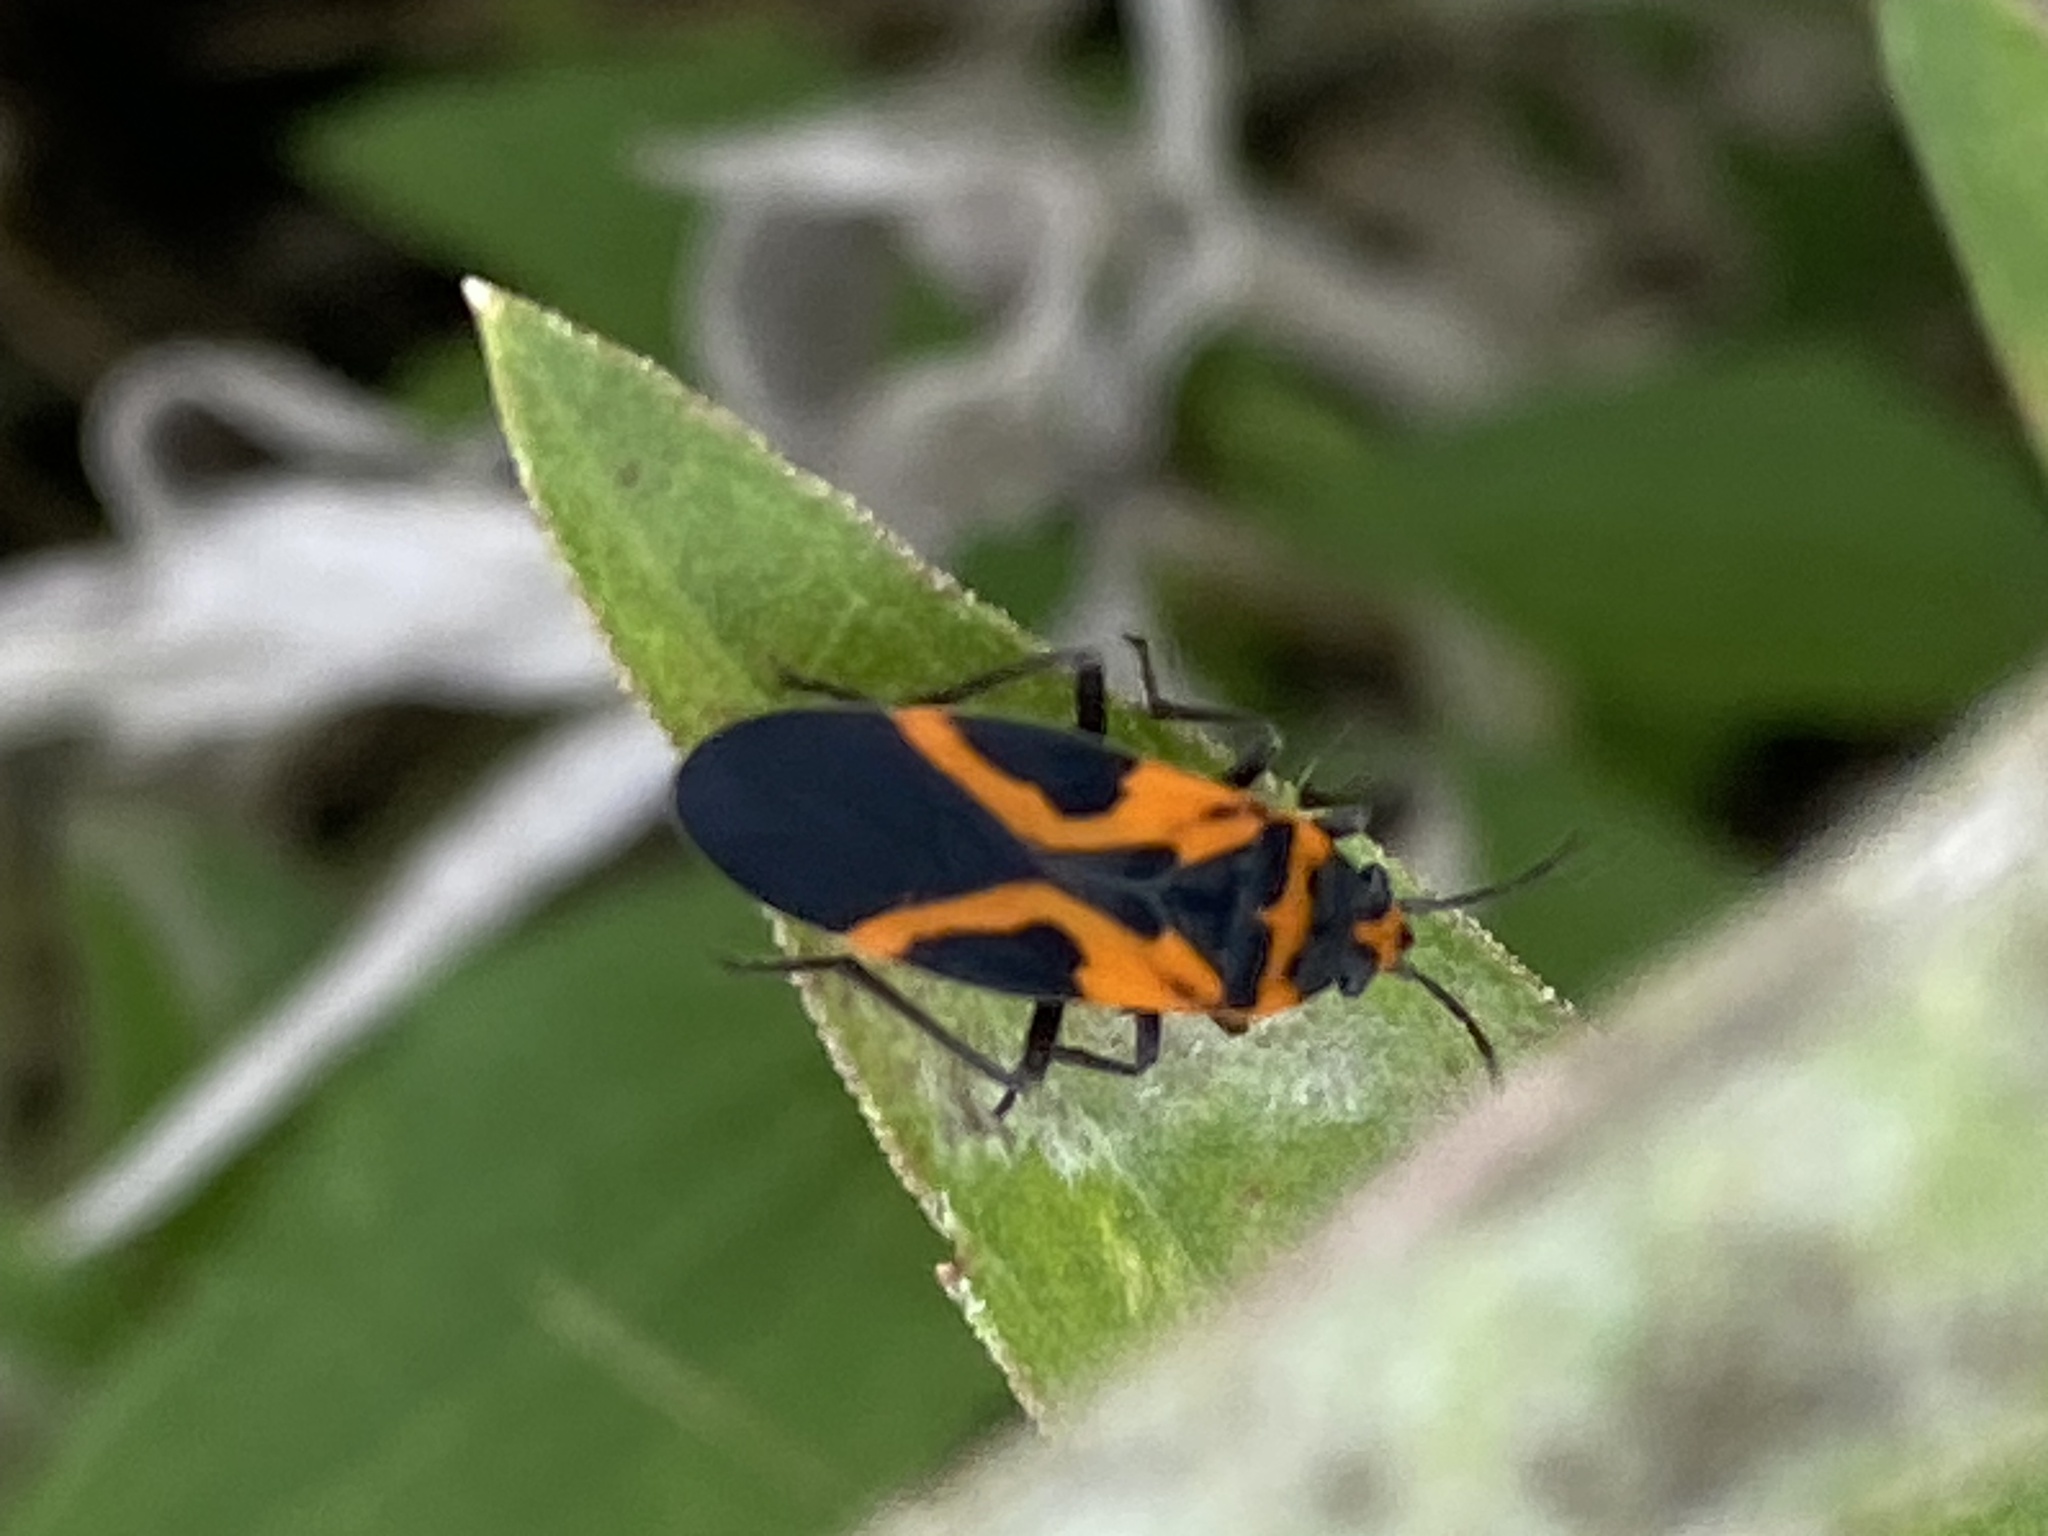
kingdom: Animalia
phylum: Arthropoda
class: Insecta
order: Hemiptera
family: Lygaeidae
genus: Lygaeus
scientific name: Lygaeus turcicus
